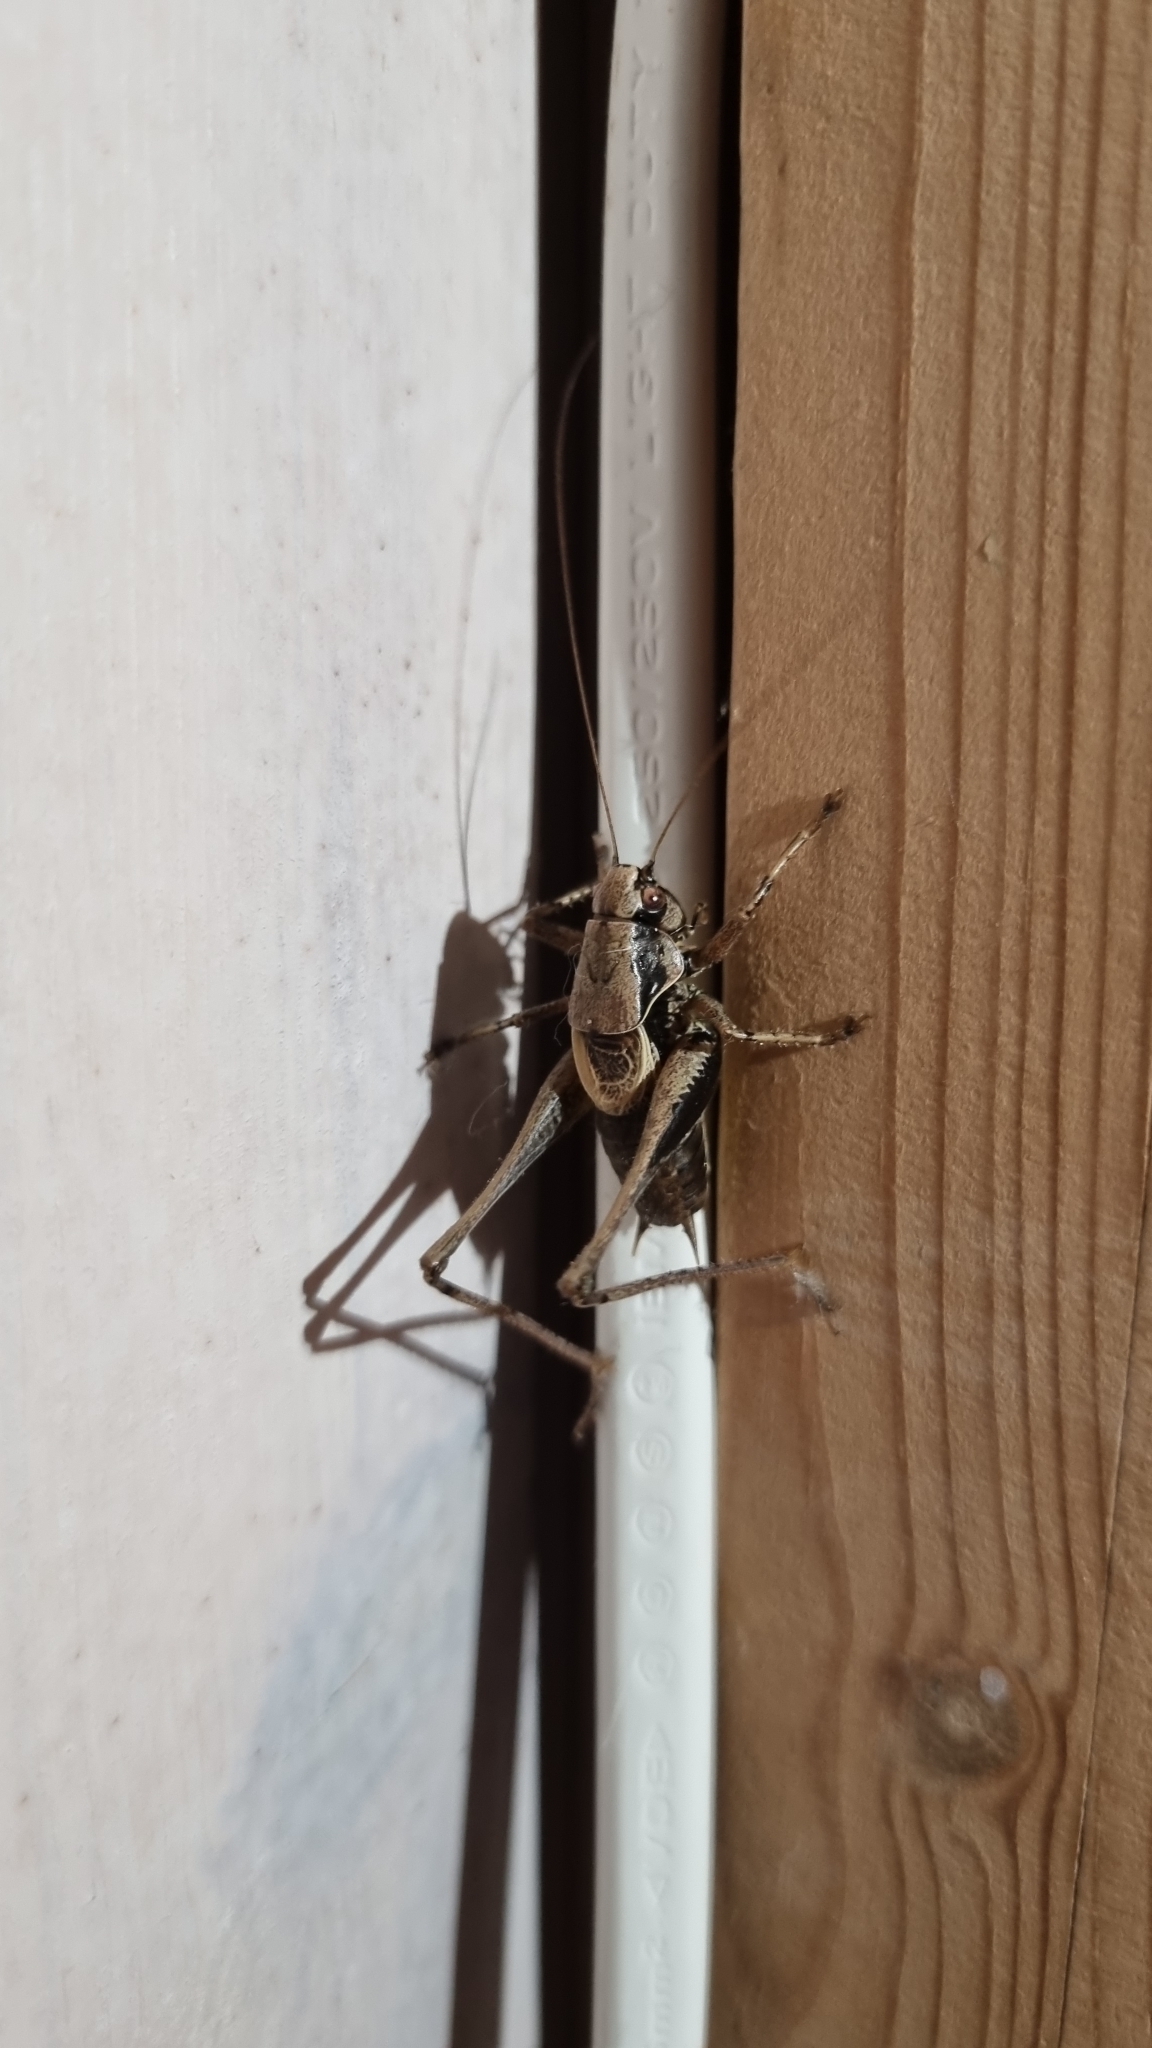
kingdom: Animalia
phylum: Arthropoda
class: Insecta
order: Orthoptera
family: Tettigoniidae
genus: Pholidoptera
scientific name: Pholidoptera griseoaptera
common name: Dark bush-cricket
